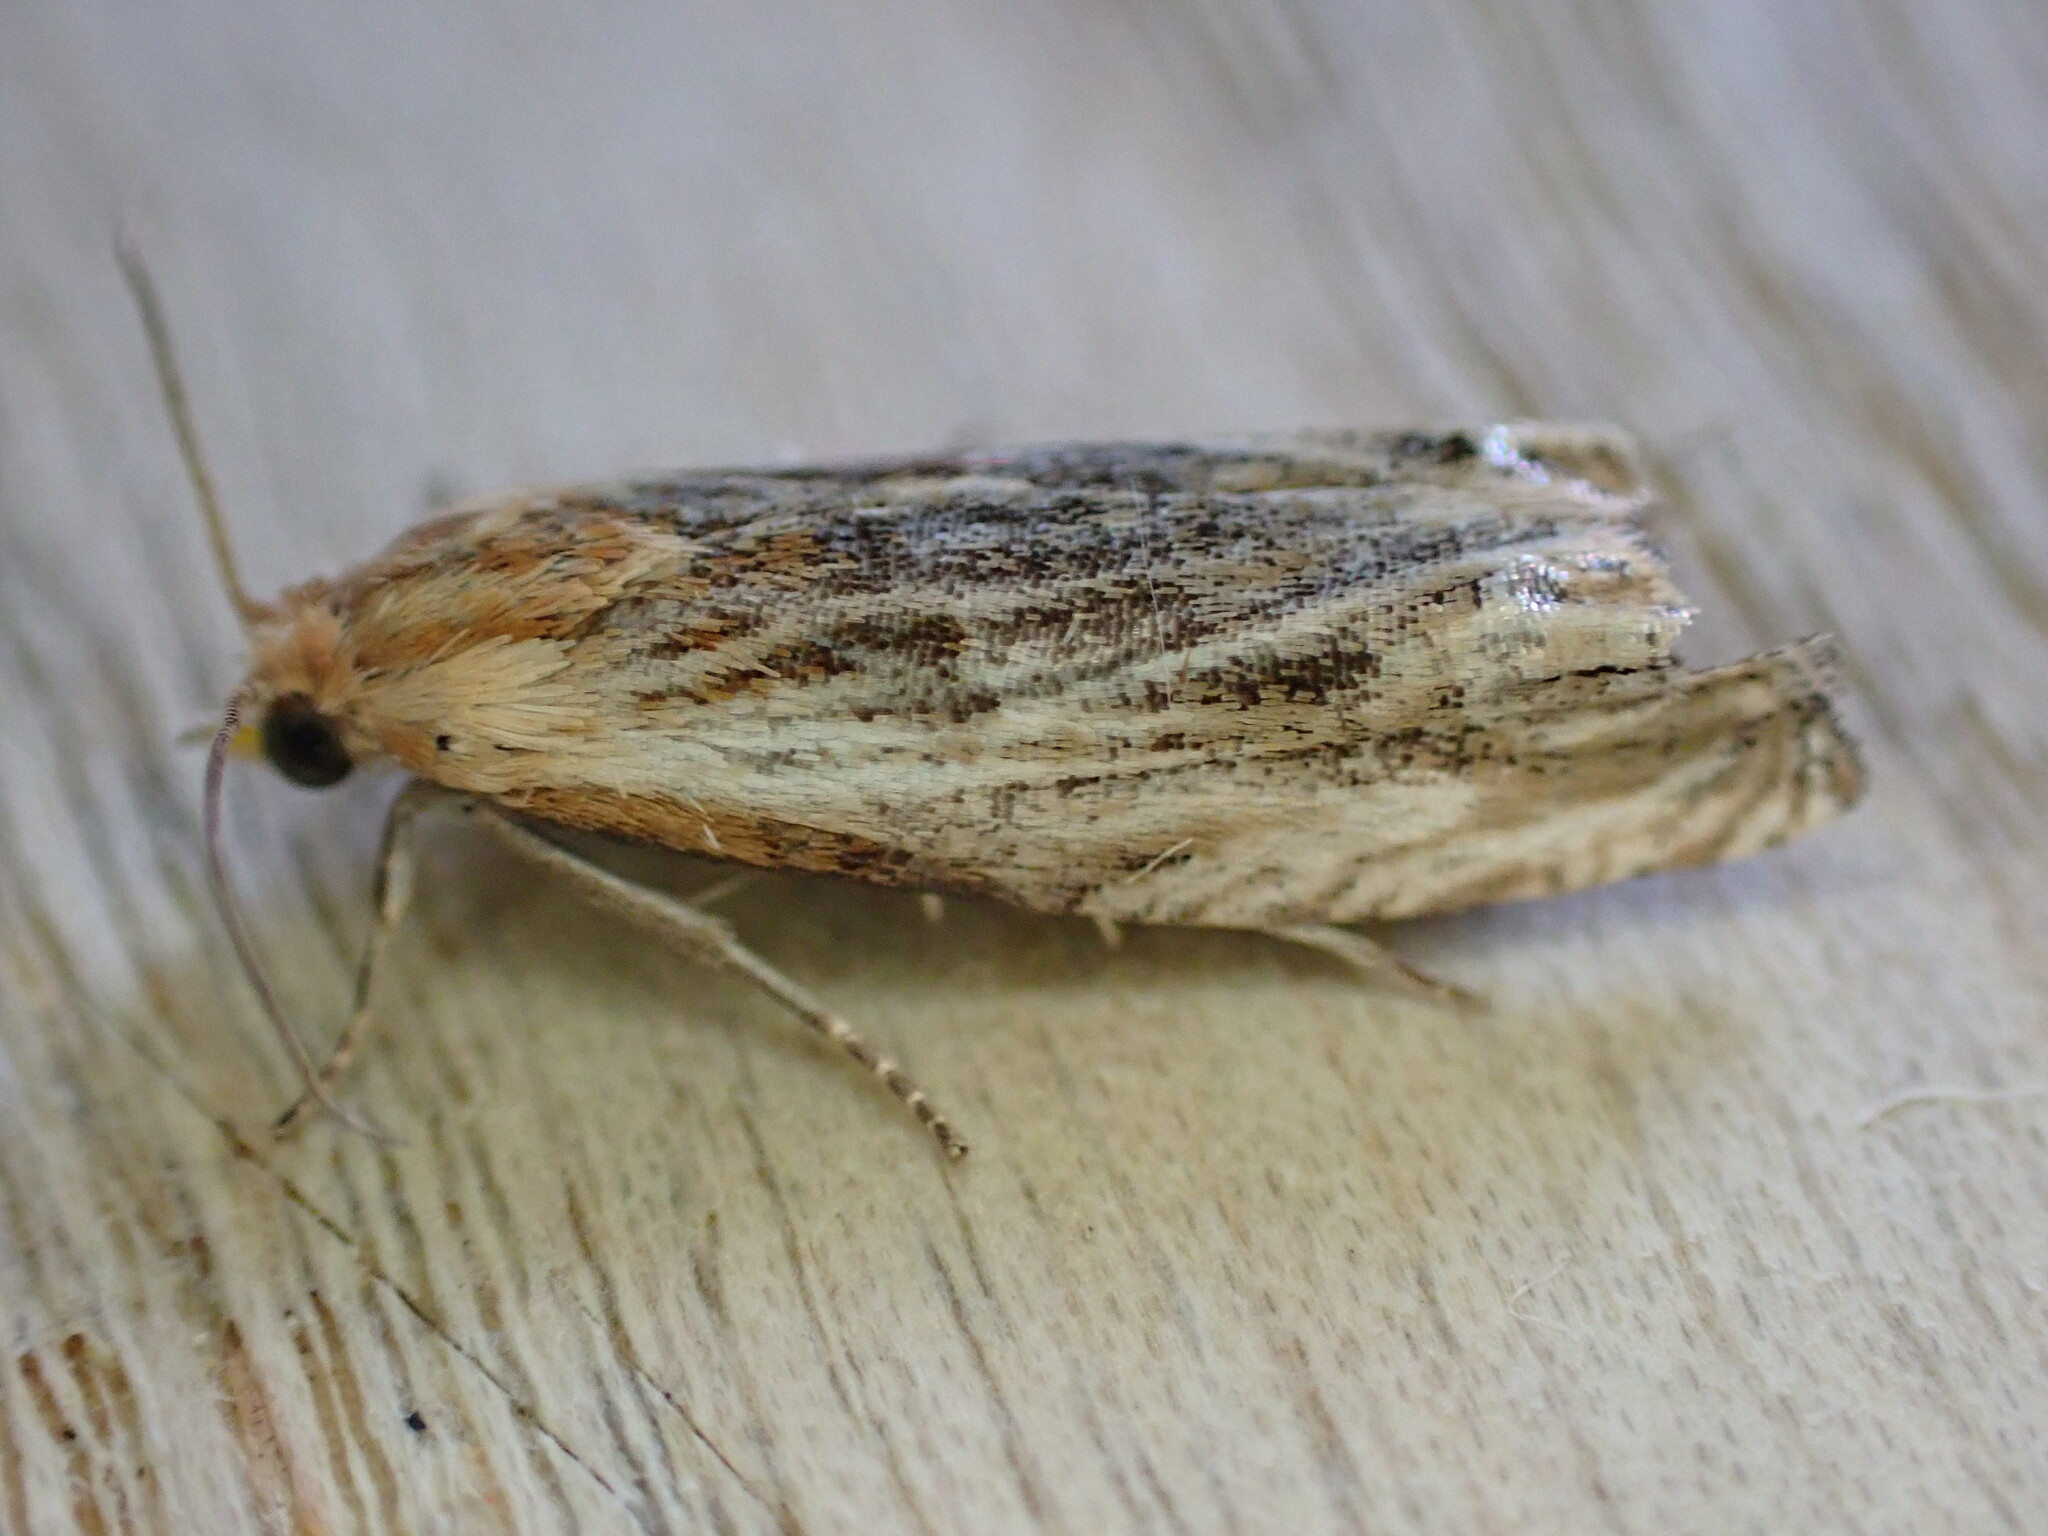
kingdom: Animalia
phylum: Arthropoda
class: Insecta
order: Lepidoptera
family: Tortricidae
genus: Eucosma
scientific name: Eucosma cana
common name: Hoary belle
